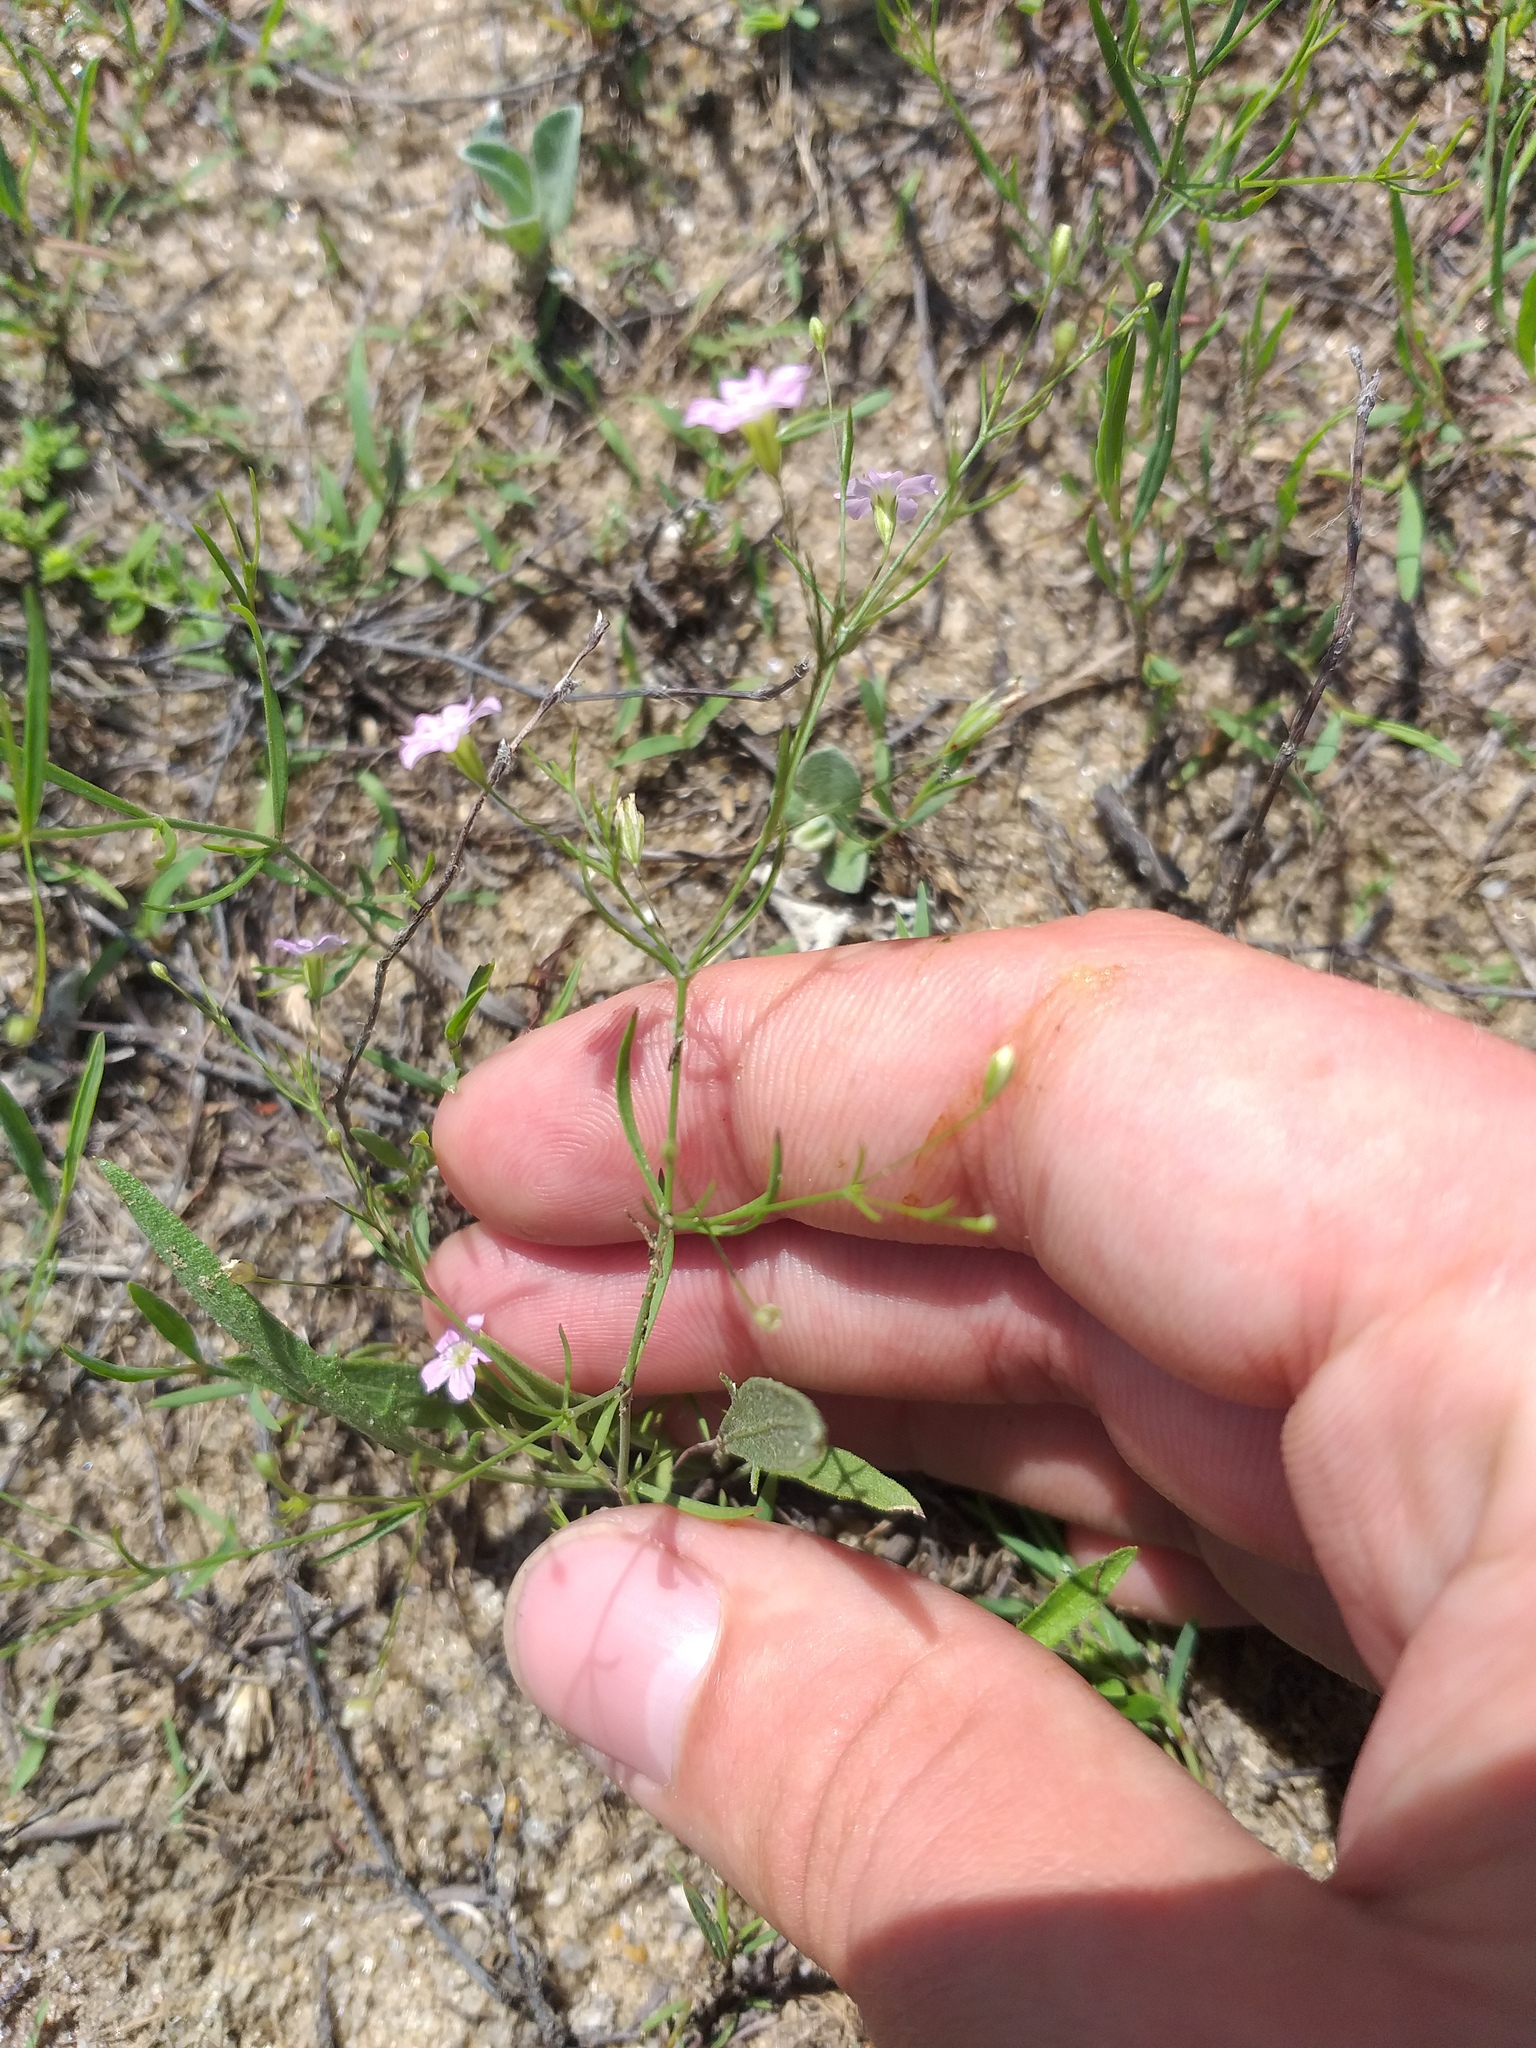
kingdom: Plantae
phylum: Tracheophyta
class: Magnoliopsida
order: Caryophyllales
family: Caryophyllaceae
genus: Psammophiliella
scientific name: Psammophiliella muralis
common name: Cushion baby's-breath
